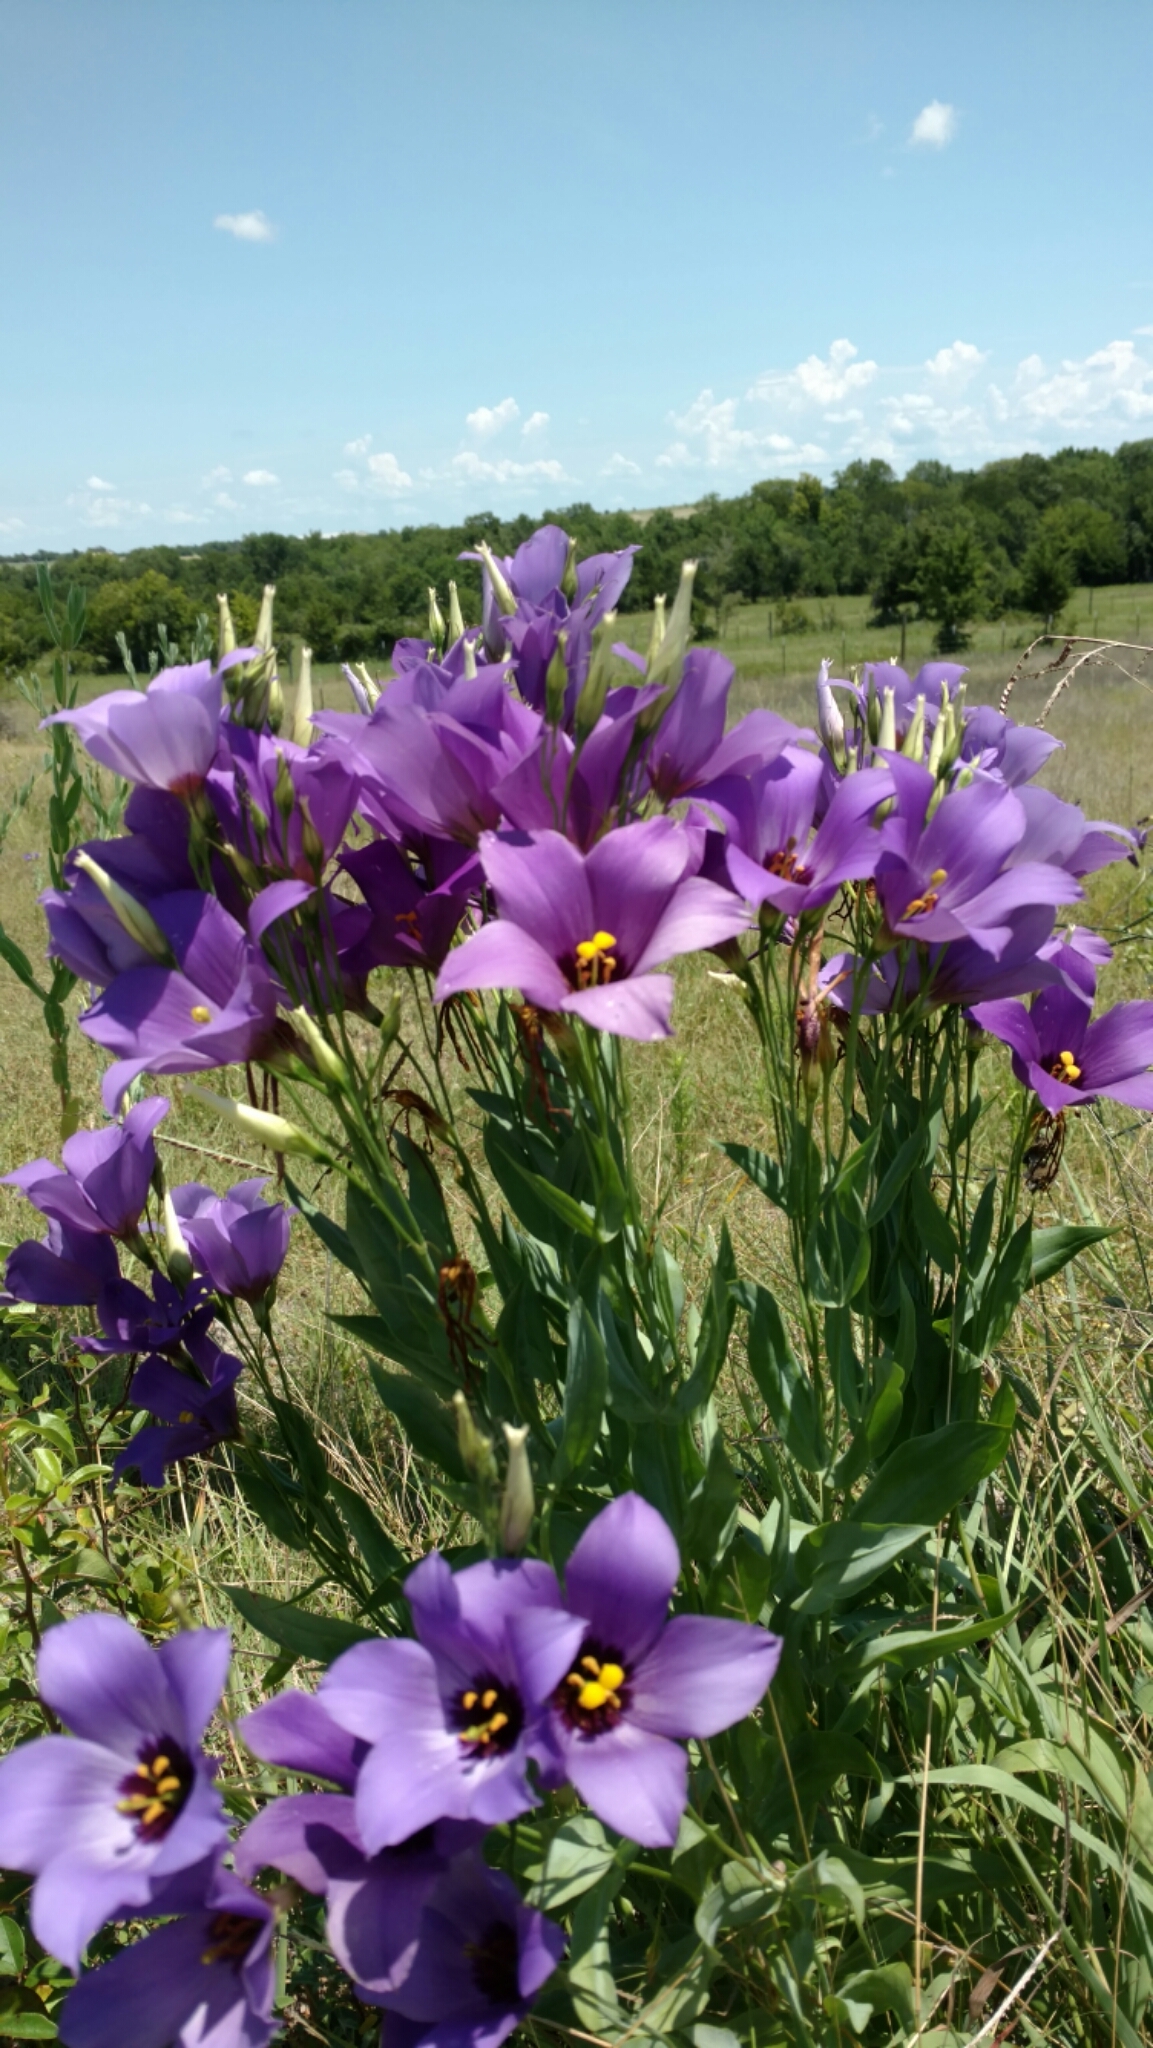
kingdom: Plantae
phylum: Tracheophyta
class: Magnoliopsida
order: Gentianales
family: Gentianaceae
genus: Eustoma
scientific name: Eustoma russellianum
